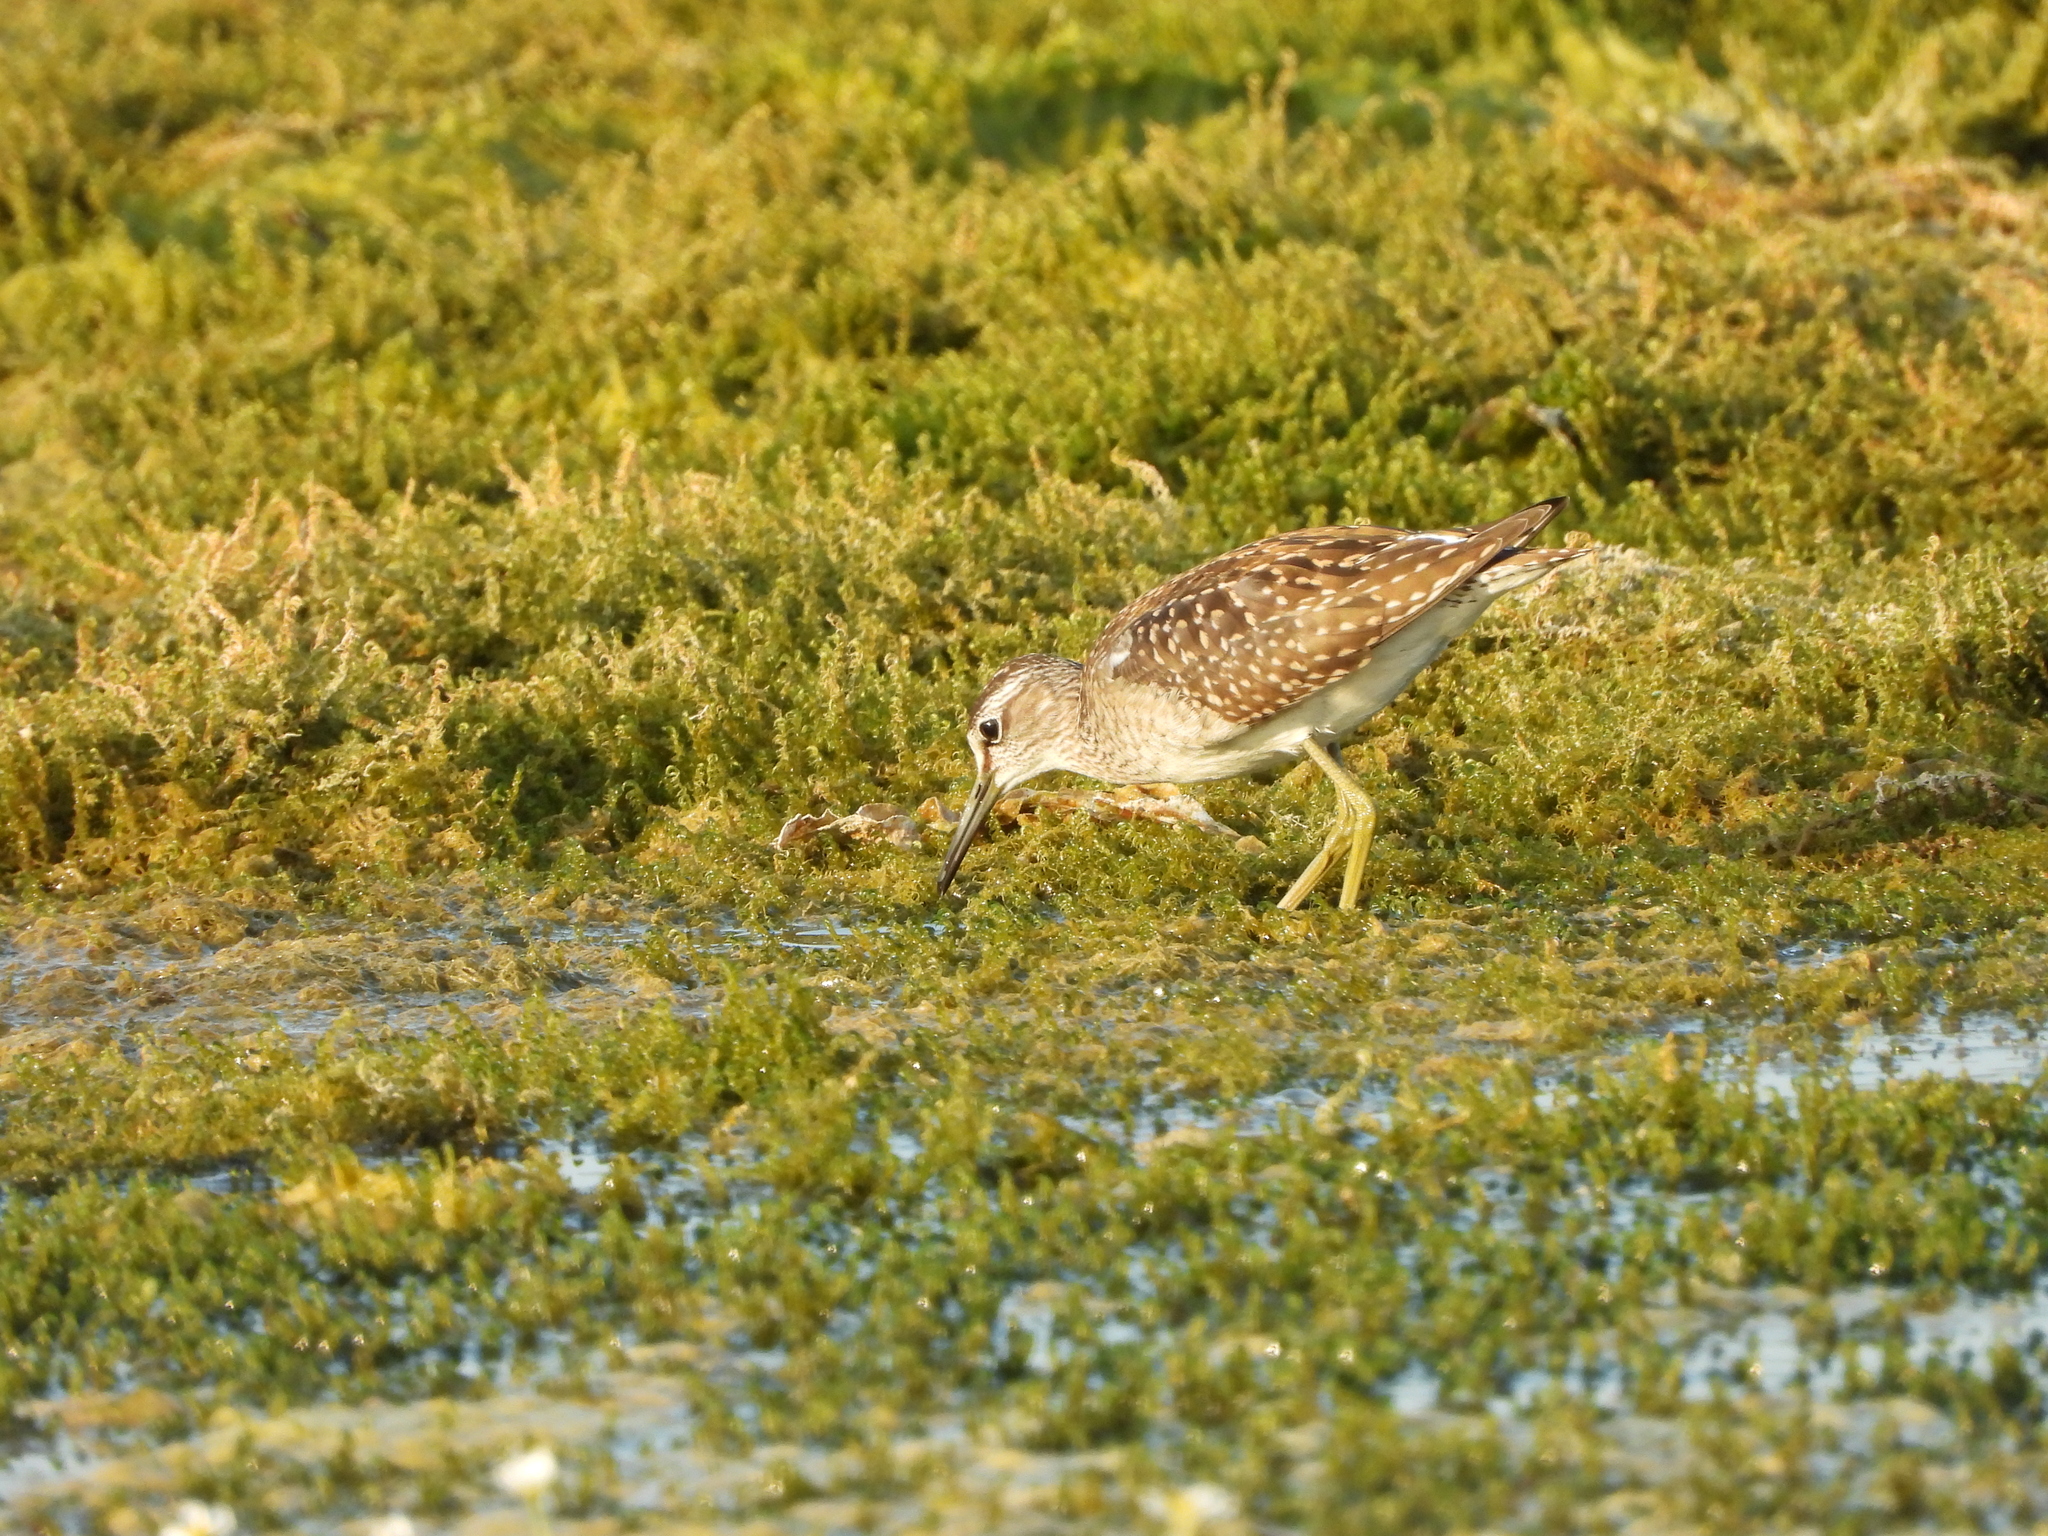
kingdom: Animalia
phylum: Chordata
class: Aves
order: Charadriiformes
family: Scolopacidae
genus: Tringa
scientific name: Tringa glareola
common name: Wood sandpiper
